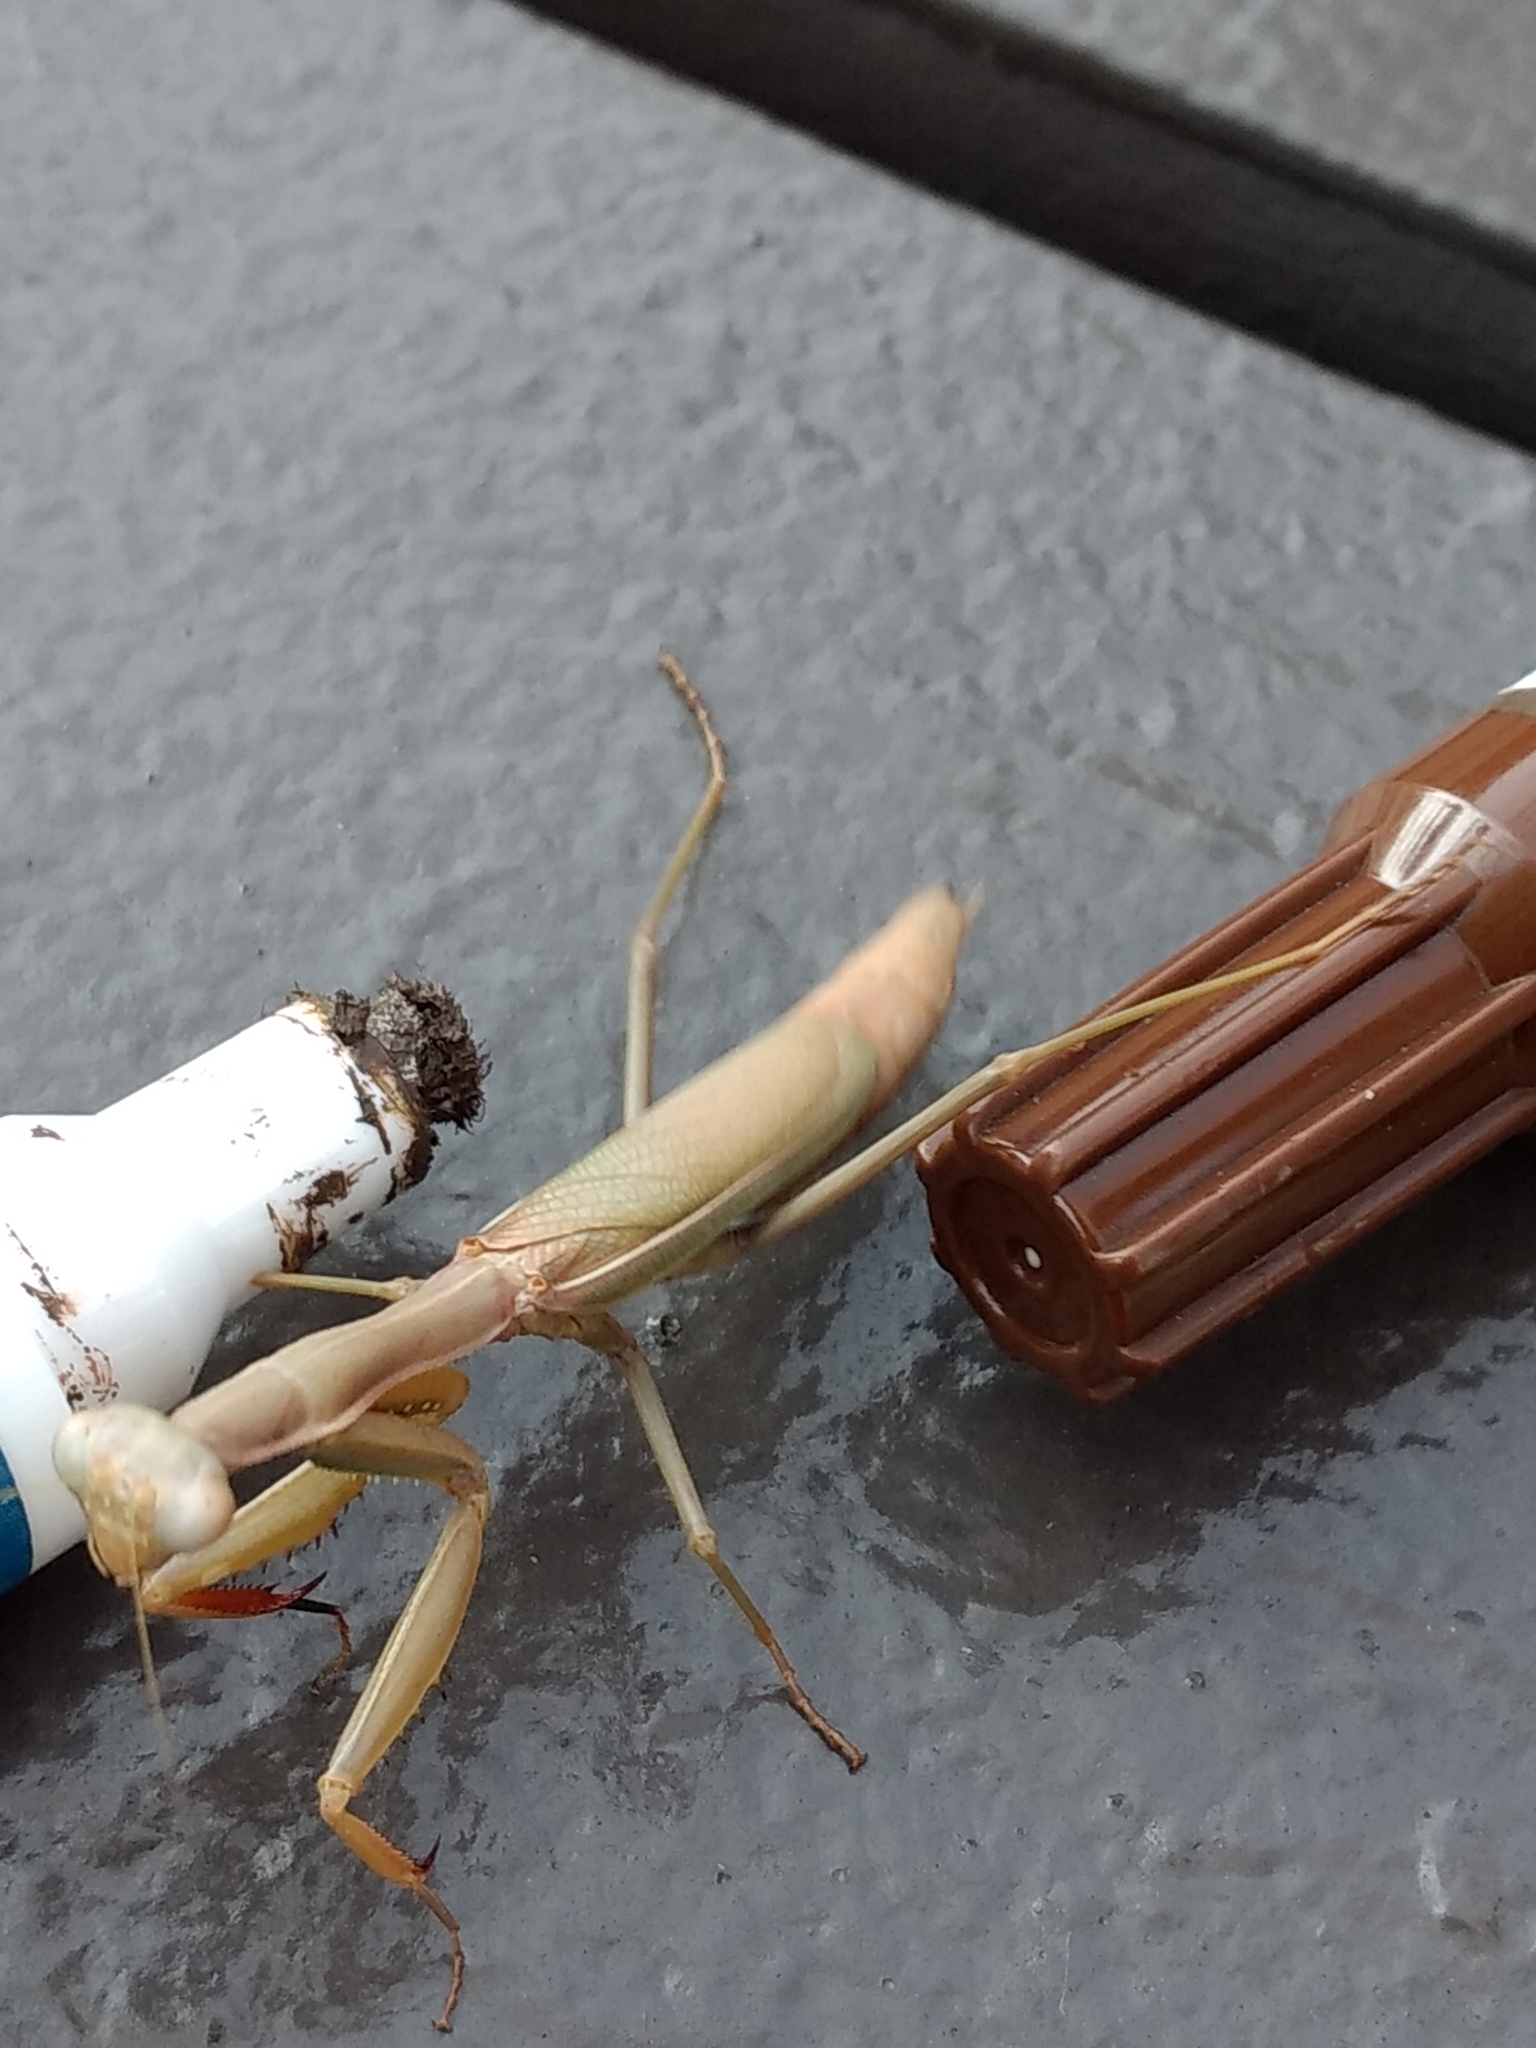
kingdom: Animalia
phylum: Arthropoda
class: Insecta
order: Mantodea
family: Eremiaphilidae
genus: Iris
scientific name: Iris oratoria
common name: Mediterranean mantis
